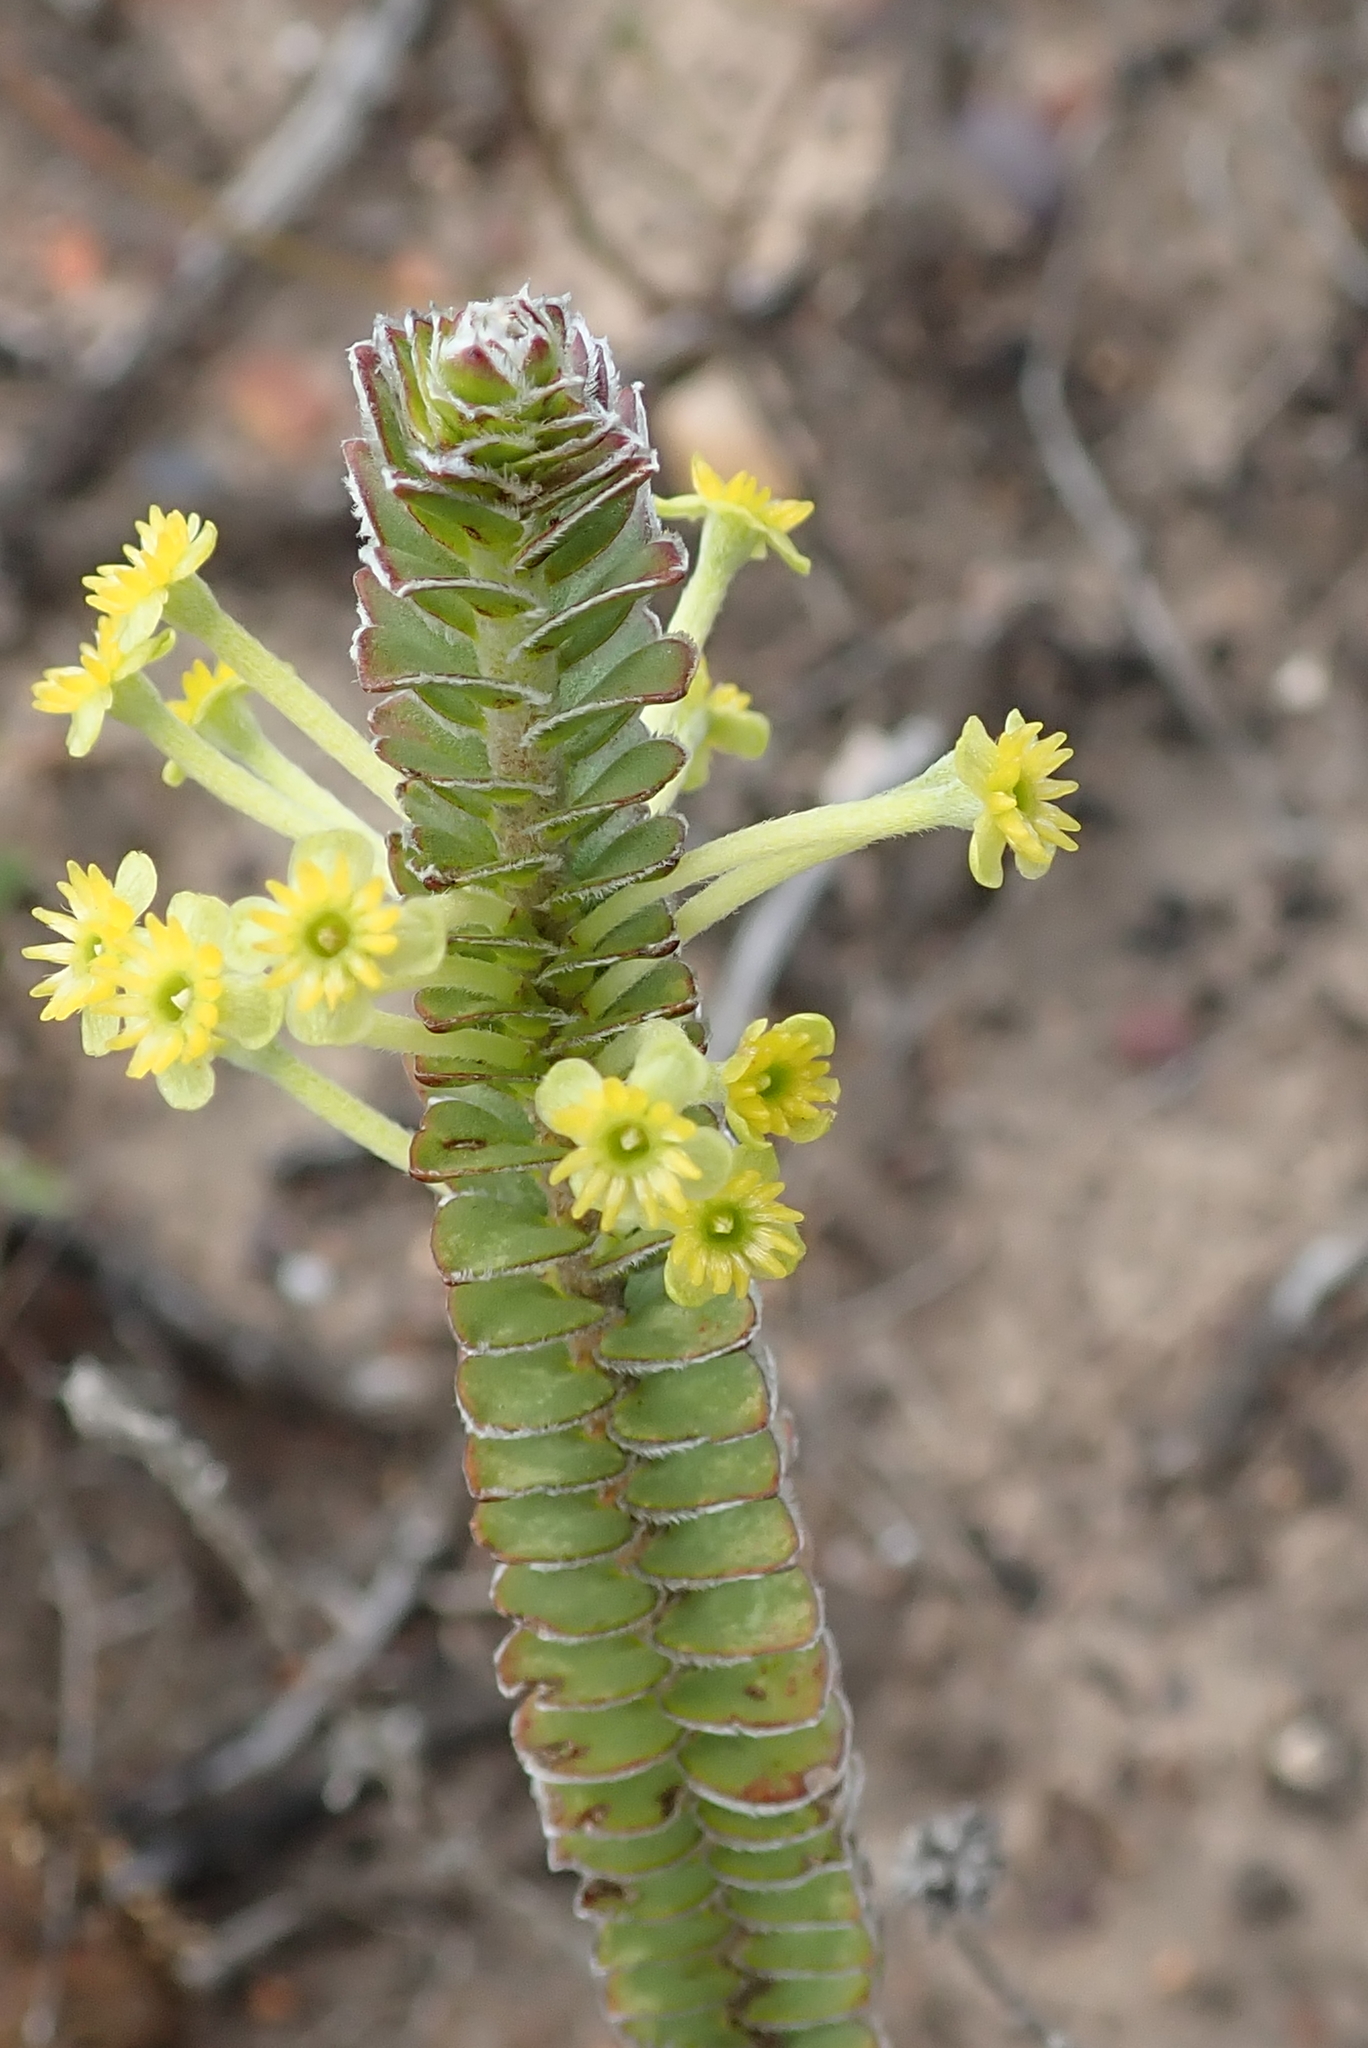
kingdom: Plantae
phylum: Tracheophyta
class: Magnoliopsida
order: Malvales
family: Thymelaeaceae
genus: Struthiola
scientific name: Struthiola argentea
